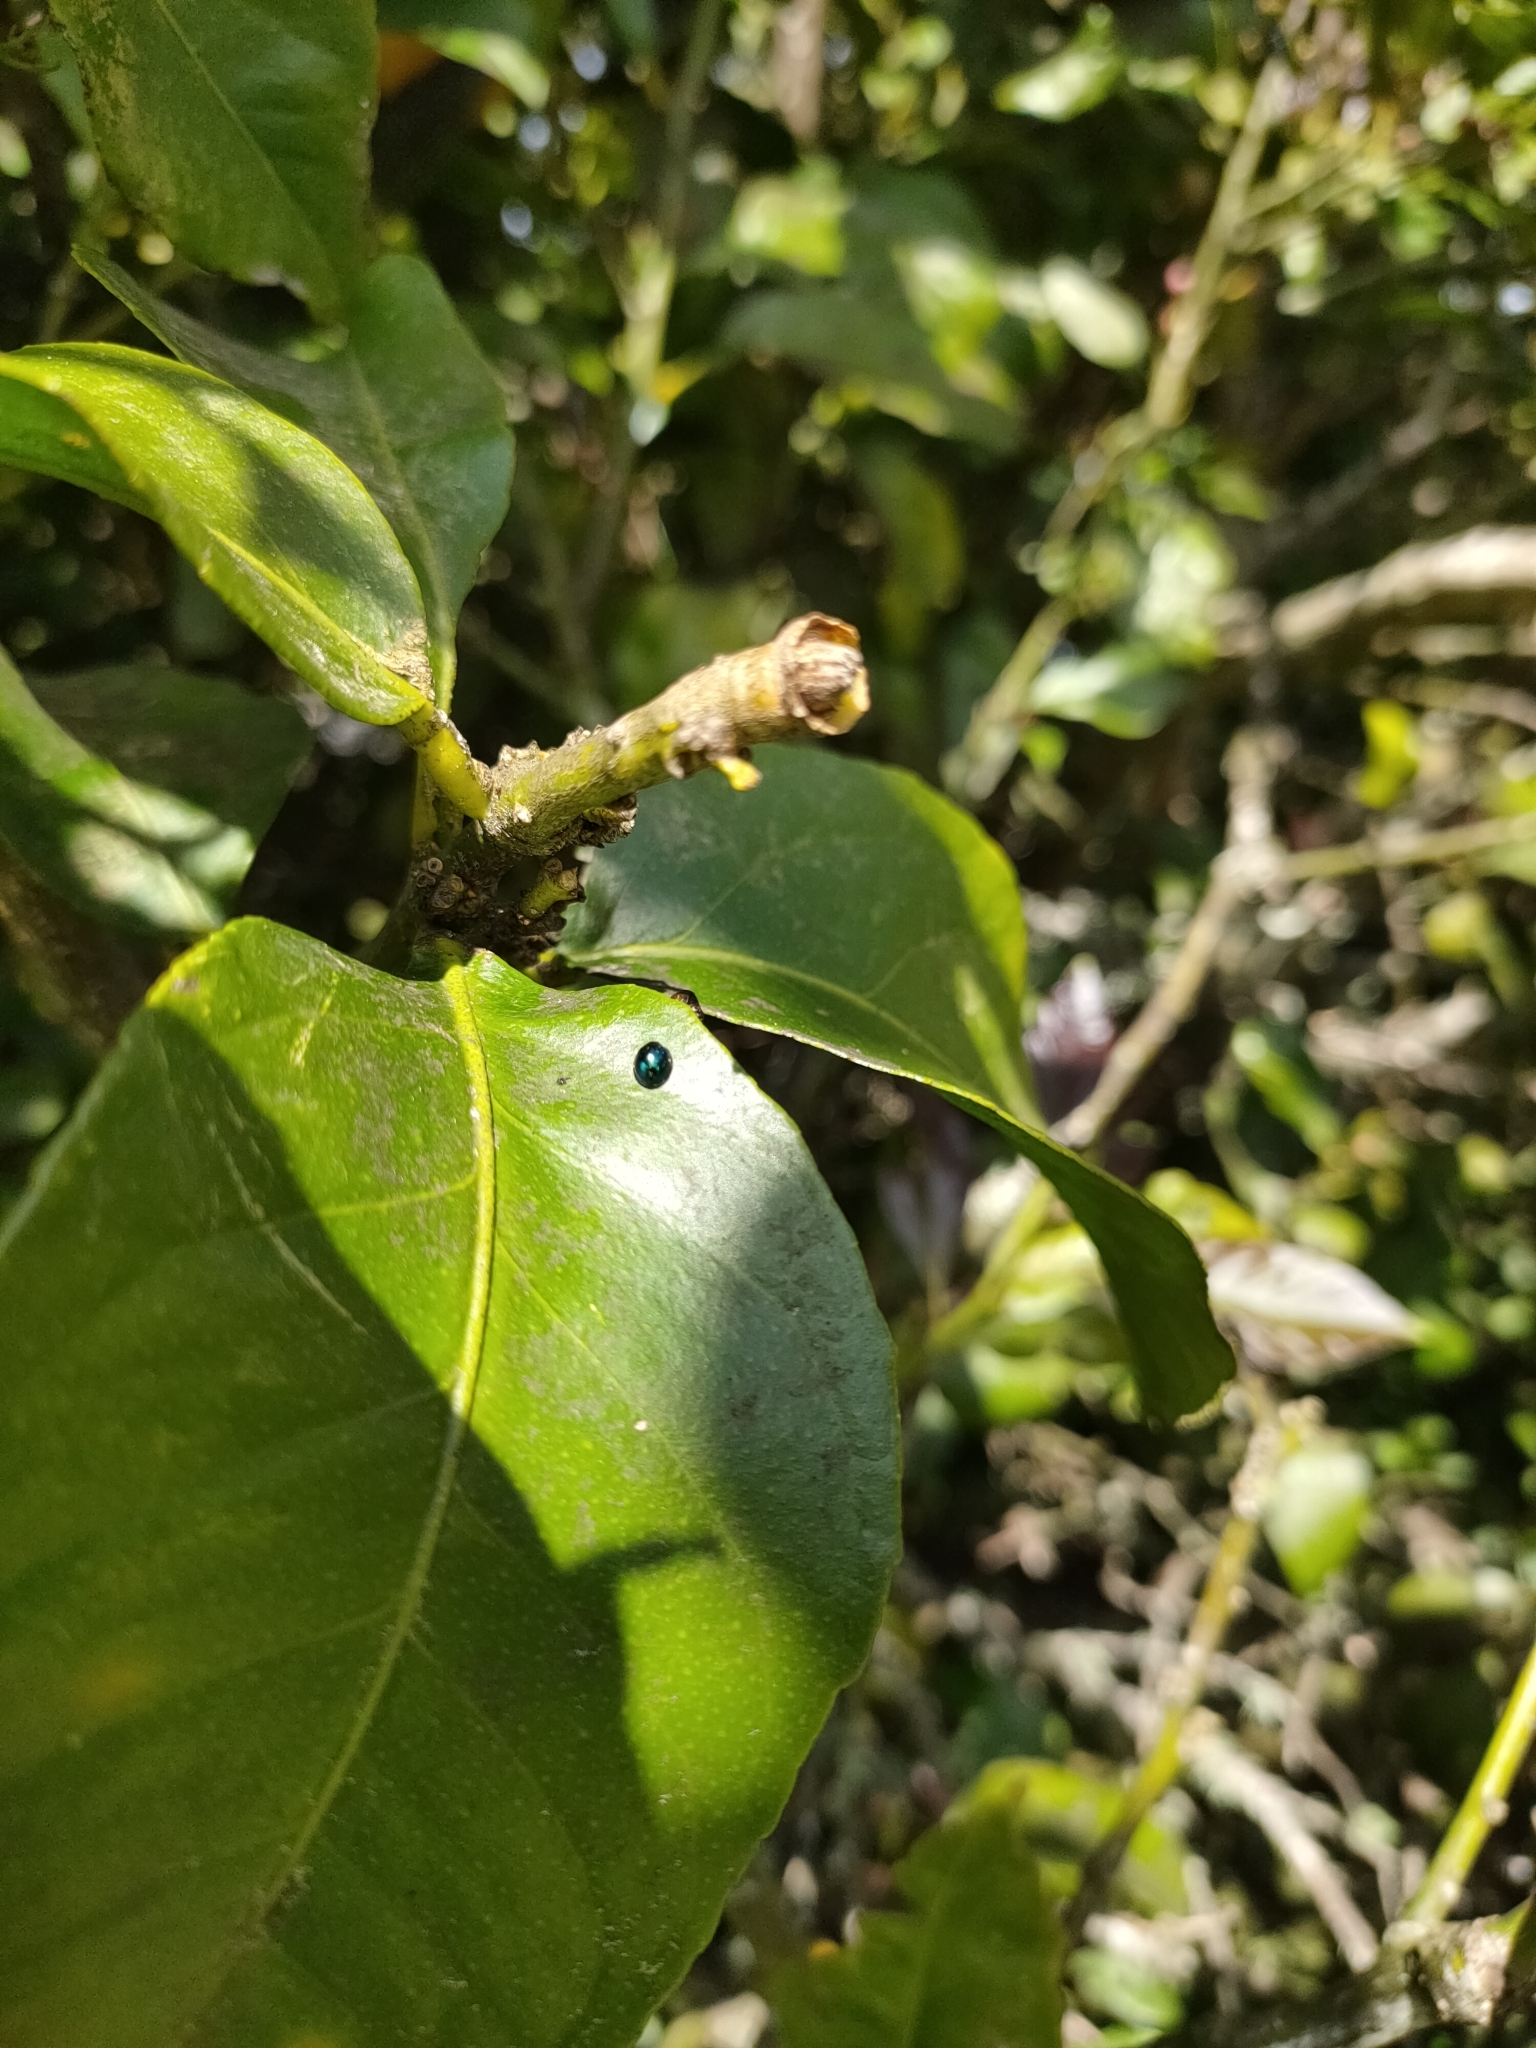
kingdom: Animalia
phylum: Arthropoda
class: Insecta
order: Coleoptera
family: Coccinellidae
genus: Halmus
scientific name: Halmus chalybeus
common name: Steel blue ladybird beetle
